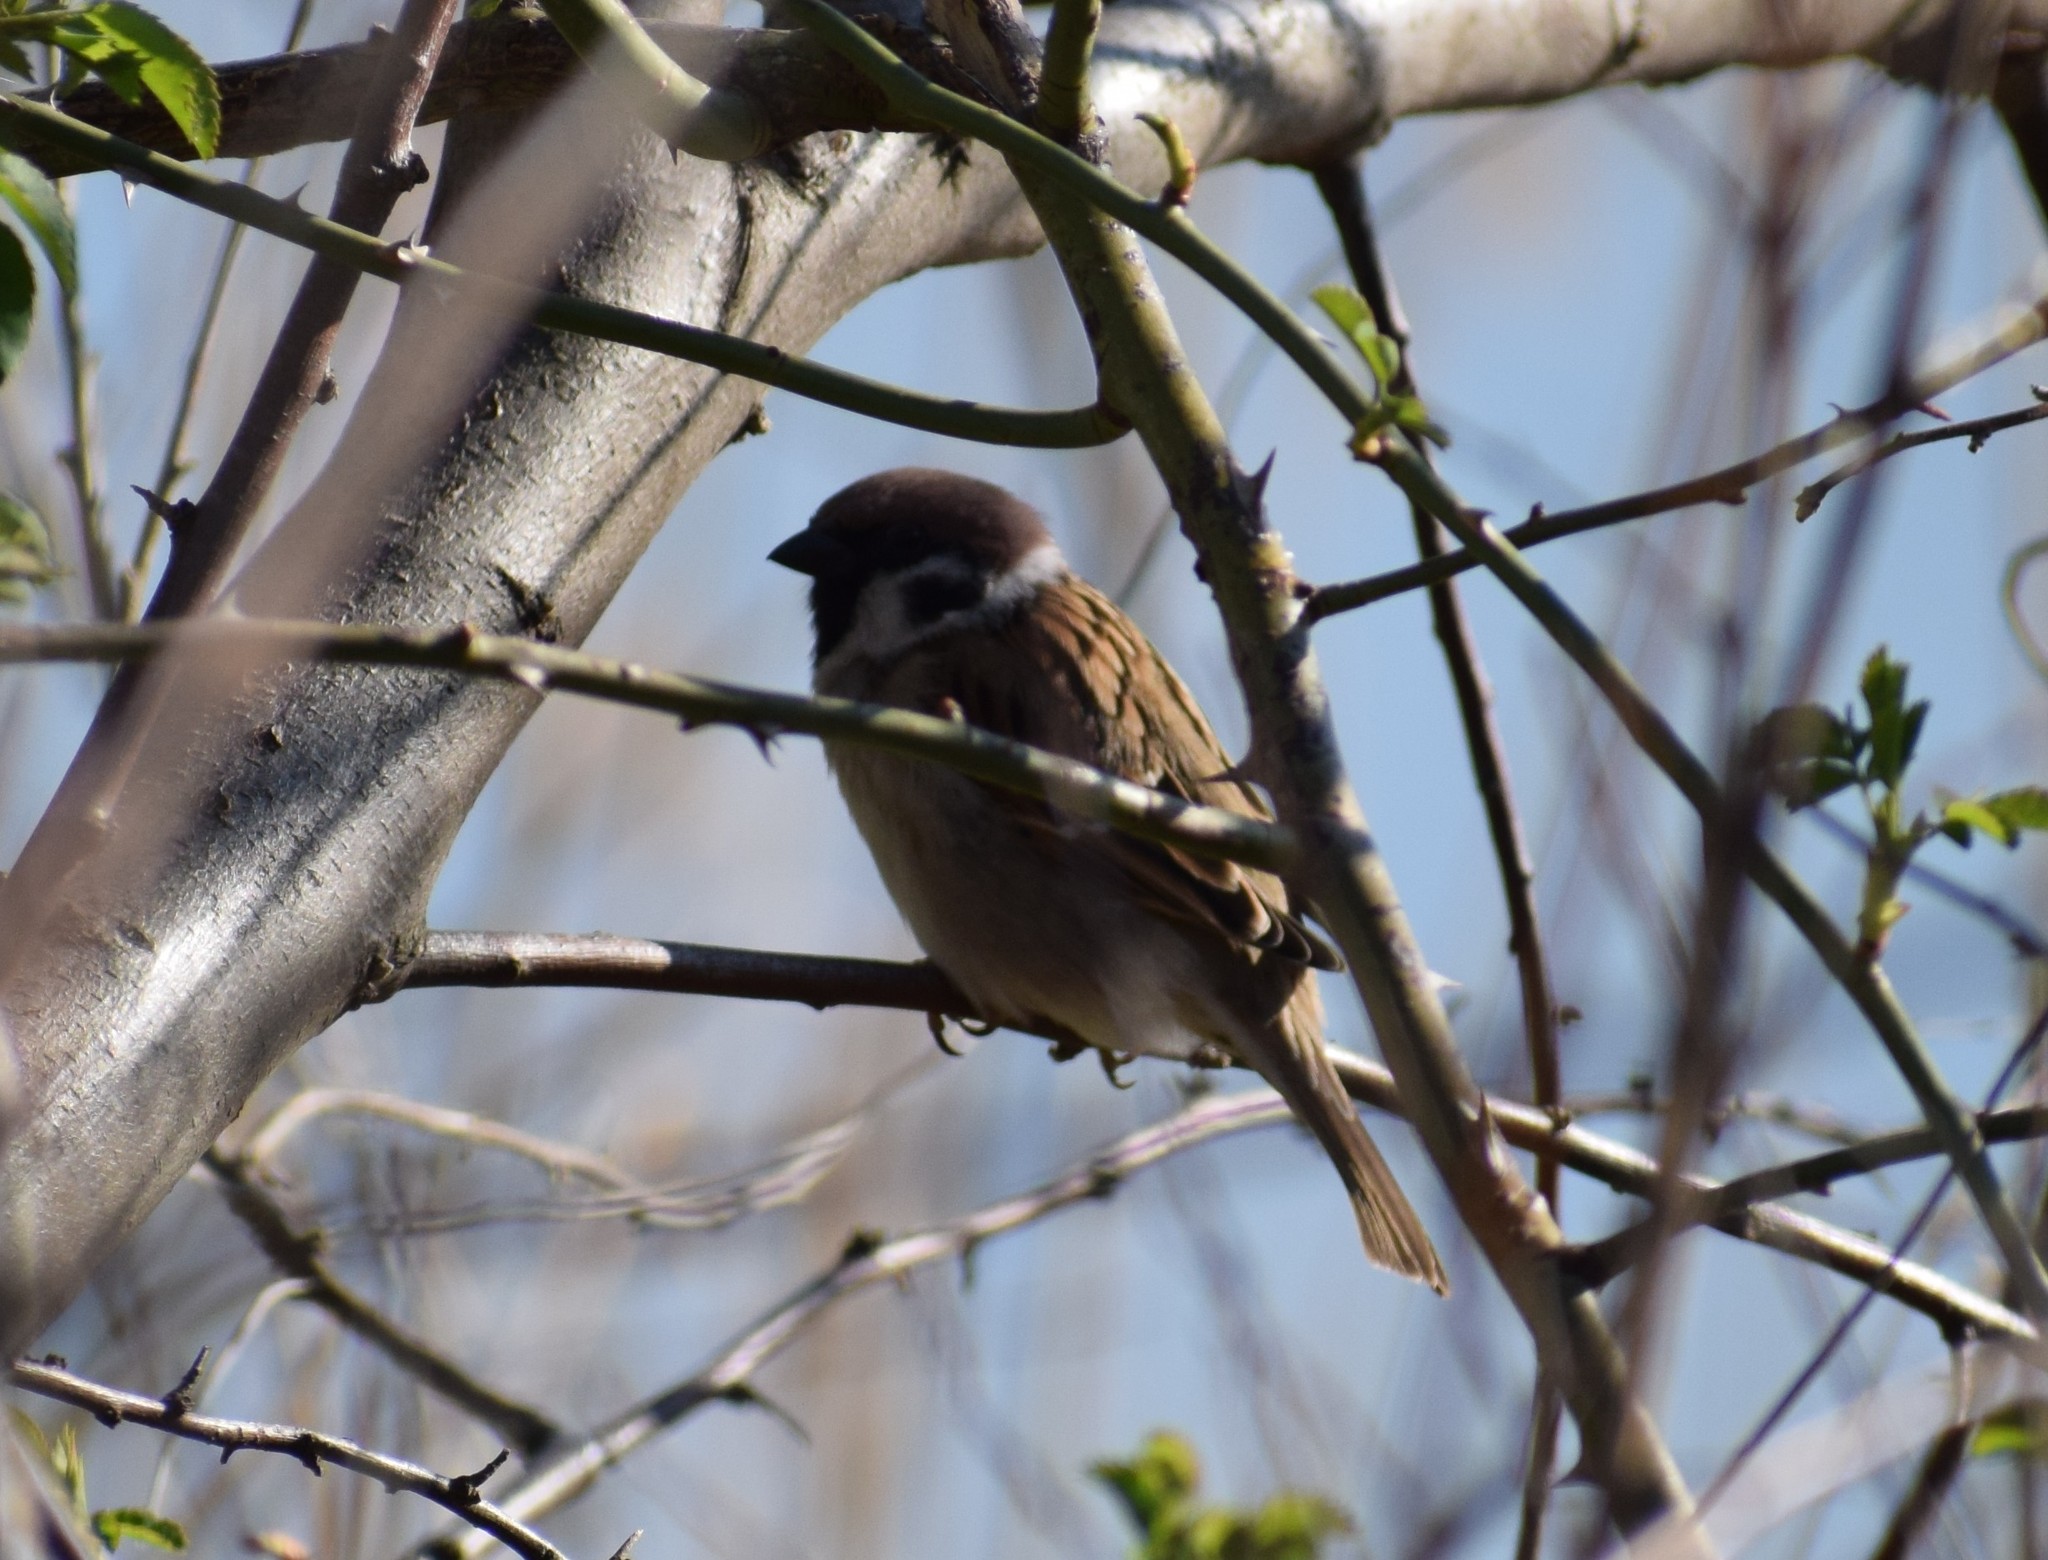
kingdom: Animalia
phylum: Chordata
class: Aves
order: Passeriformes
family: Passeridae
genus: Passer
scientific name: Passer montanus
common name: Eurasian tree sparrow
